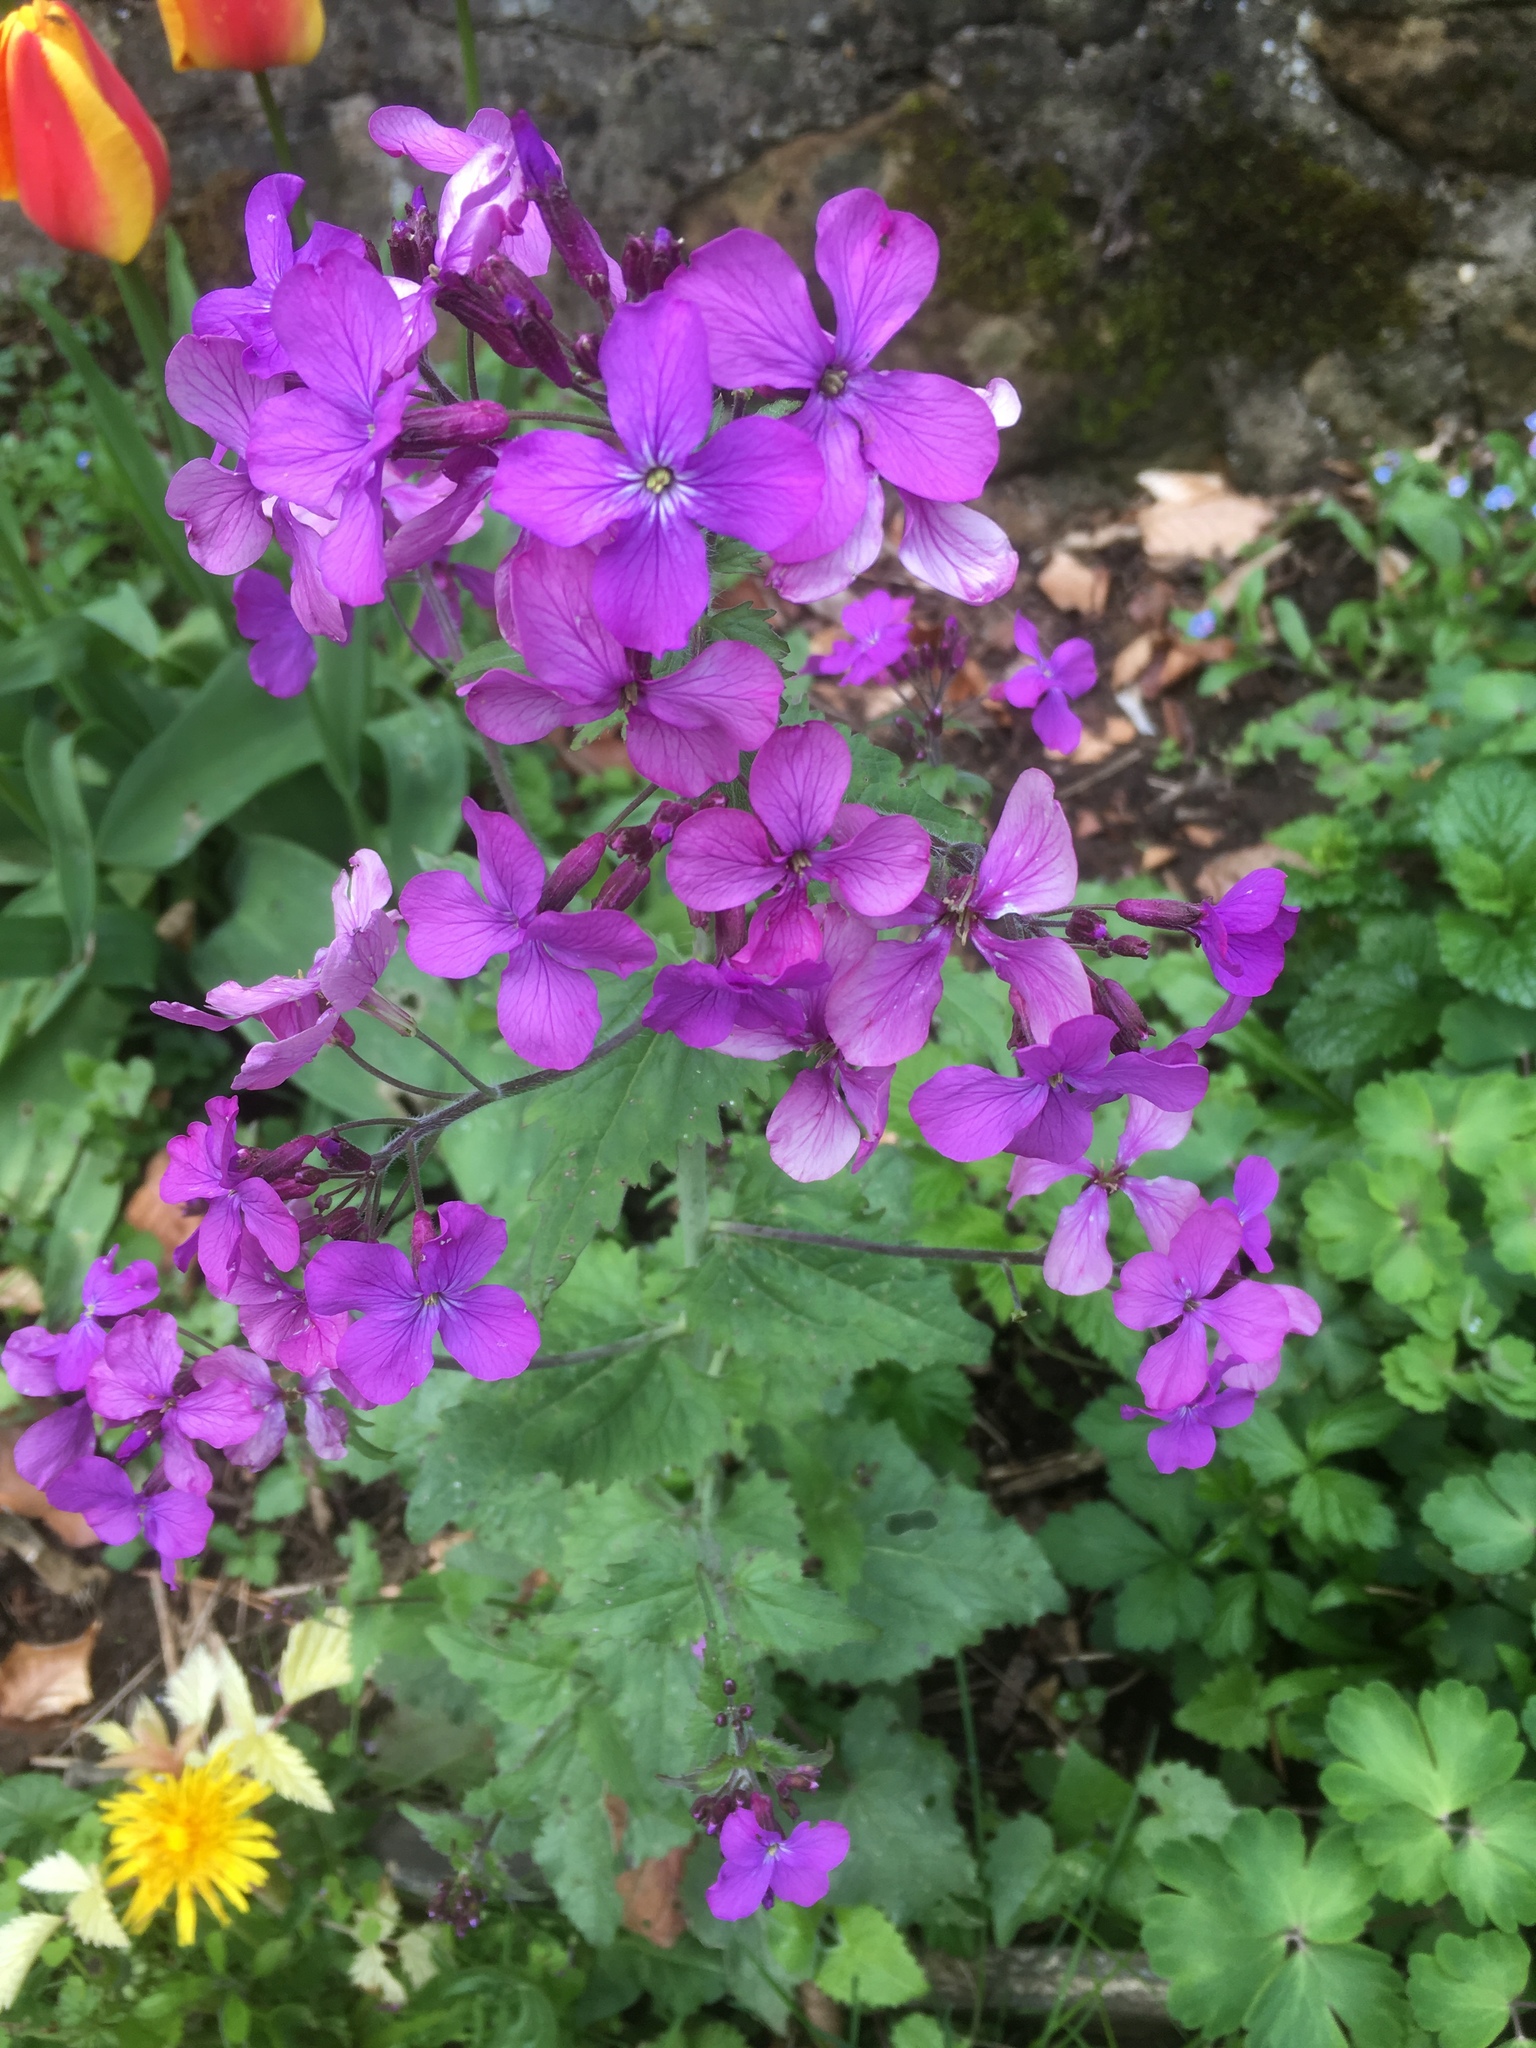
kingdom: Plantae
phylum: Tracheophyta
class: Magnoliopsida
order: Brassicales
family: Brassicaceae
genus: Lunaria
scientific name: Lunaria annua
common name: Honesty
